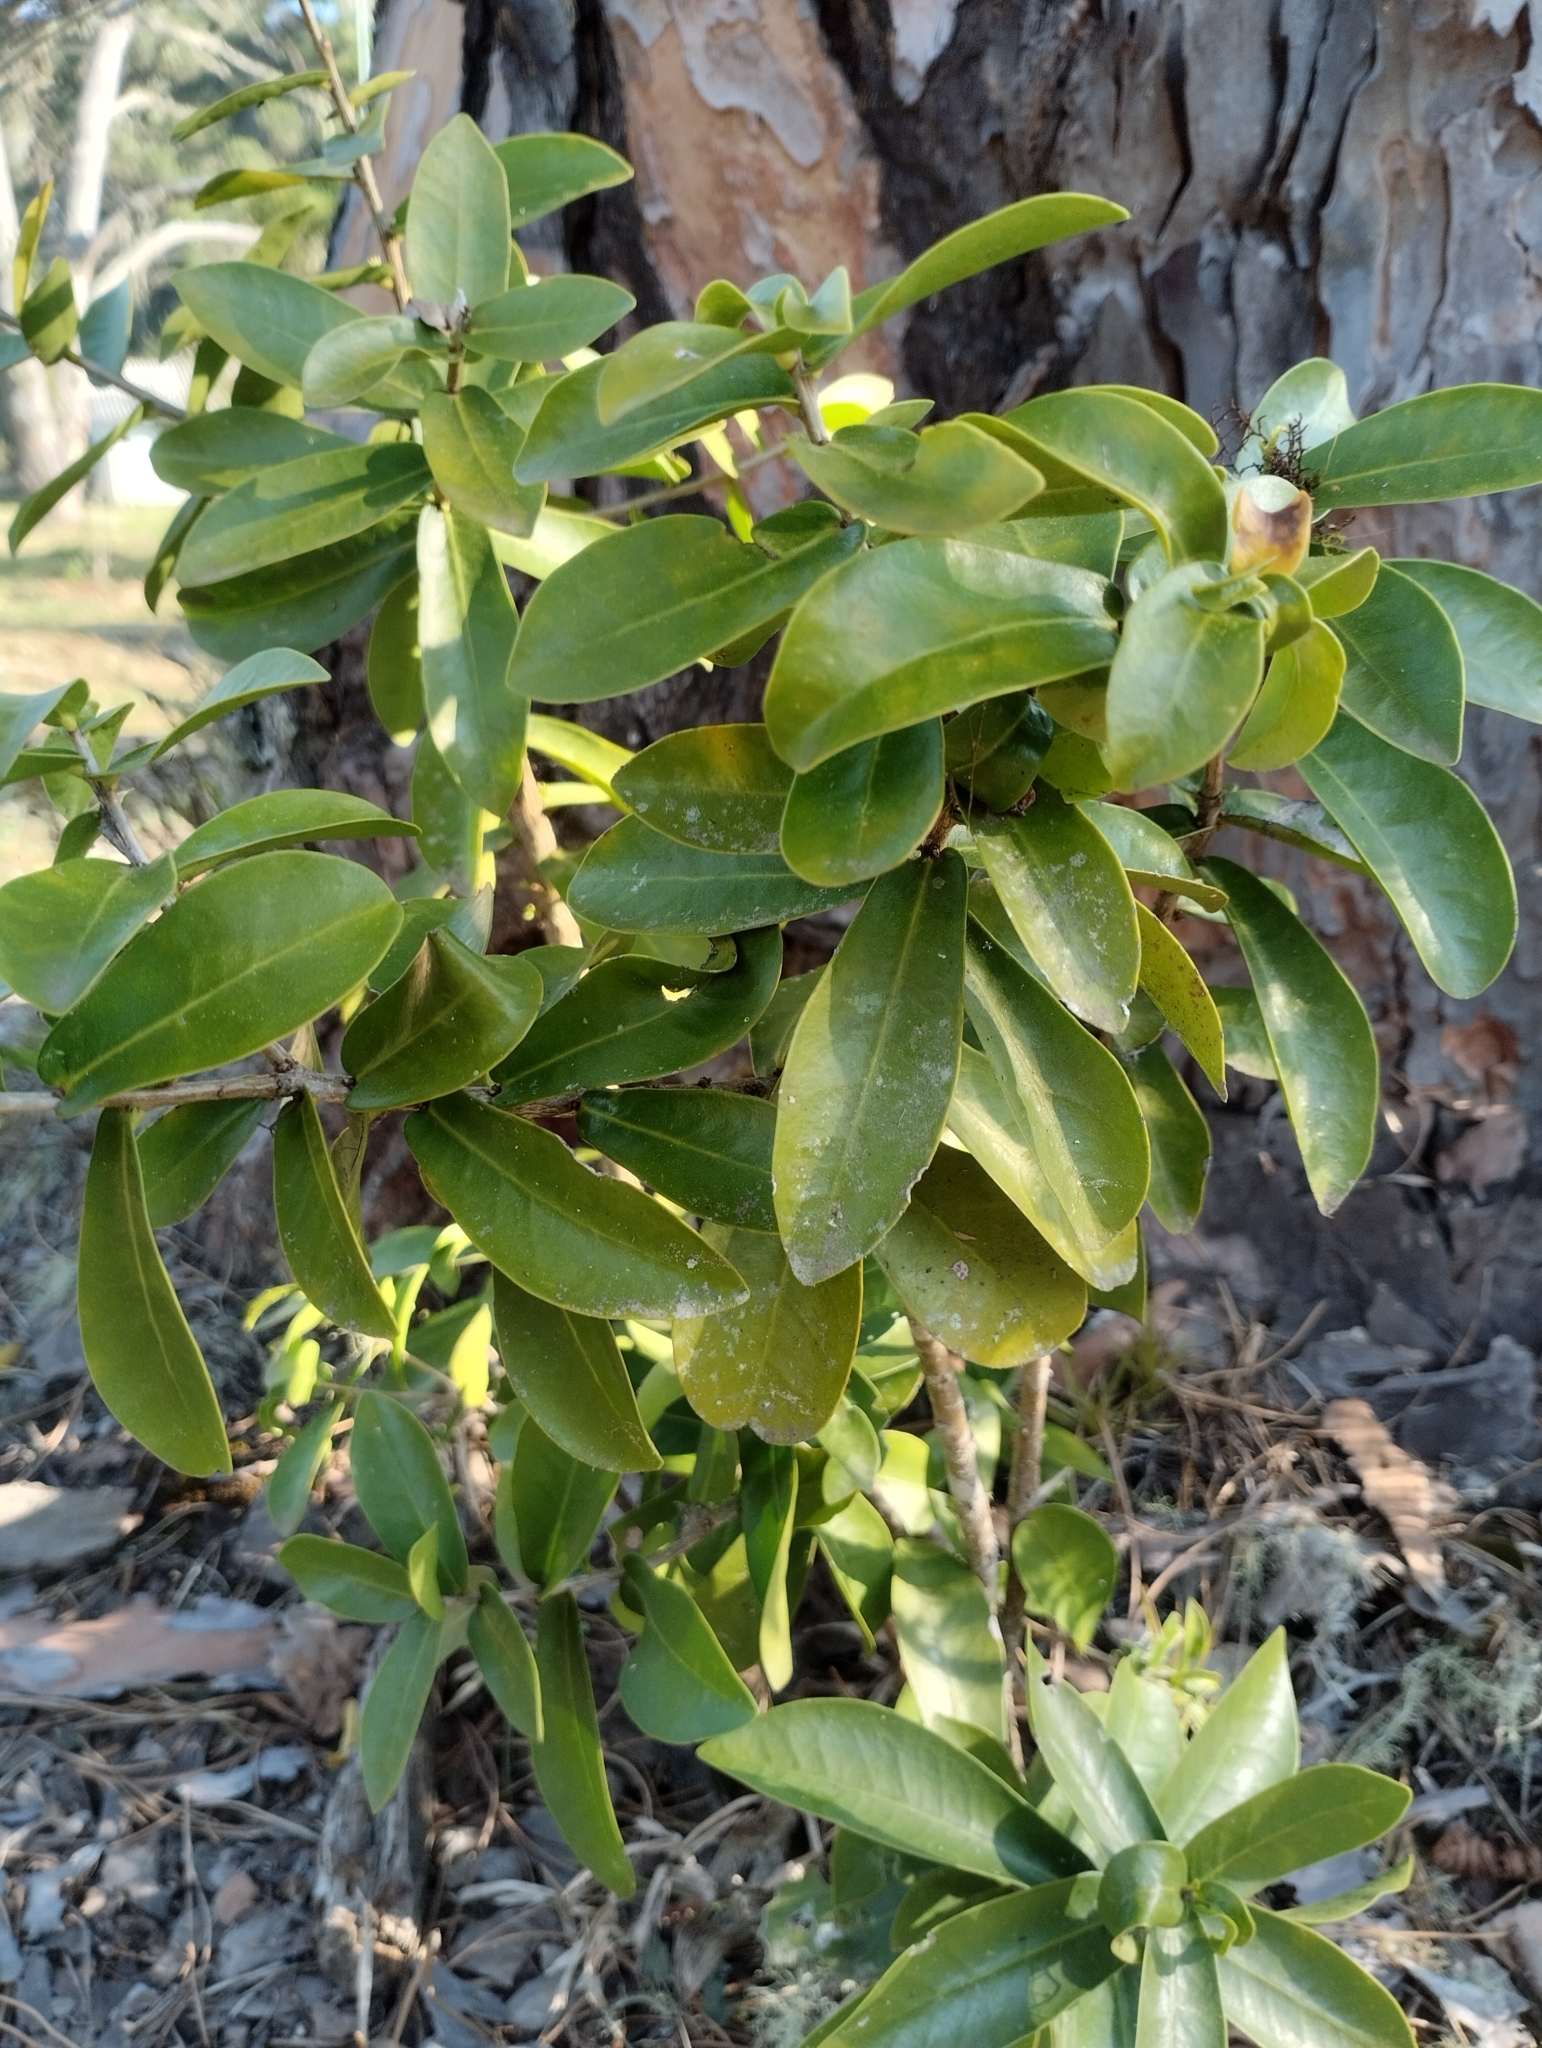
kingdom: Plantae
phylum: Tracheophyta
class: Magnoliopsida
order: Malvales
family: Thymelaeaceae
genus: Daphnopsis
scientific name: Daphnopsis racemosa
